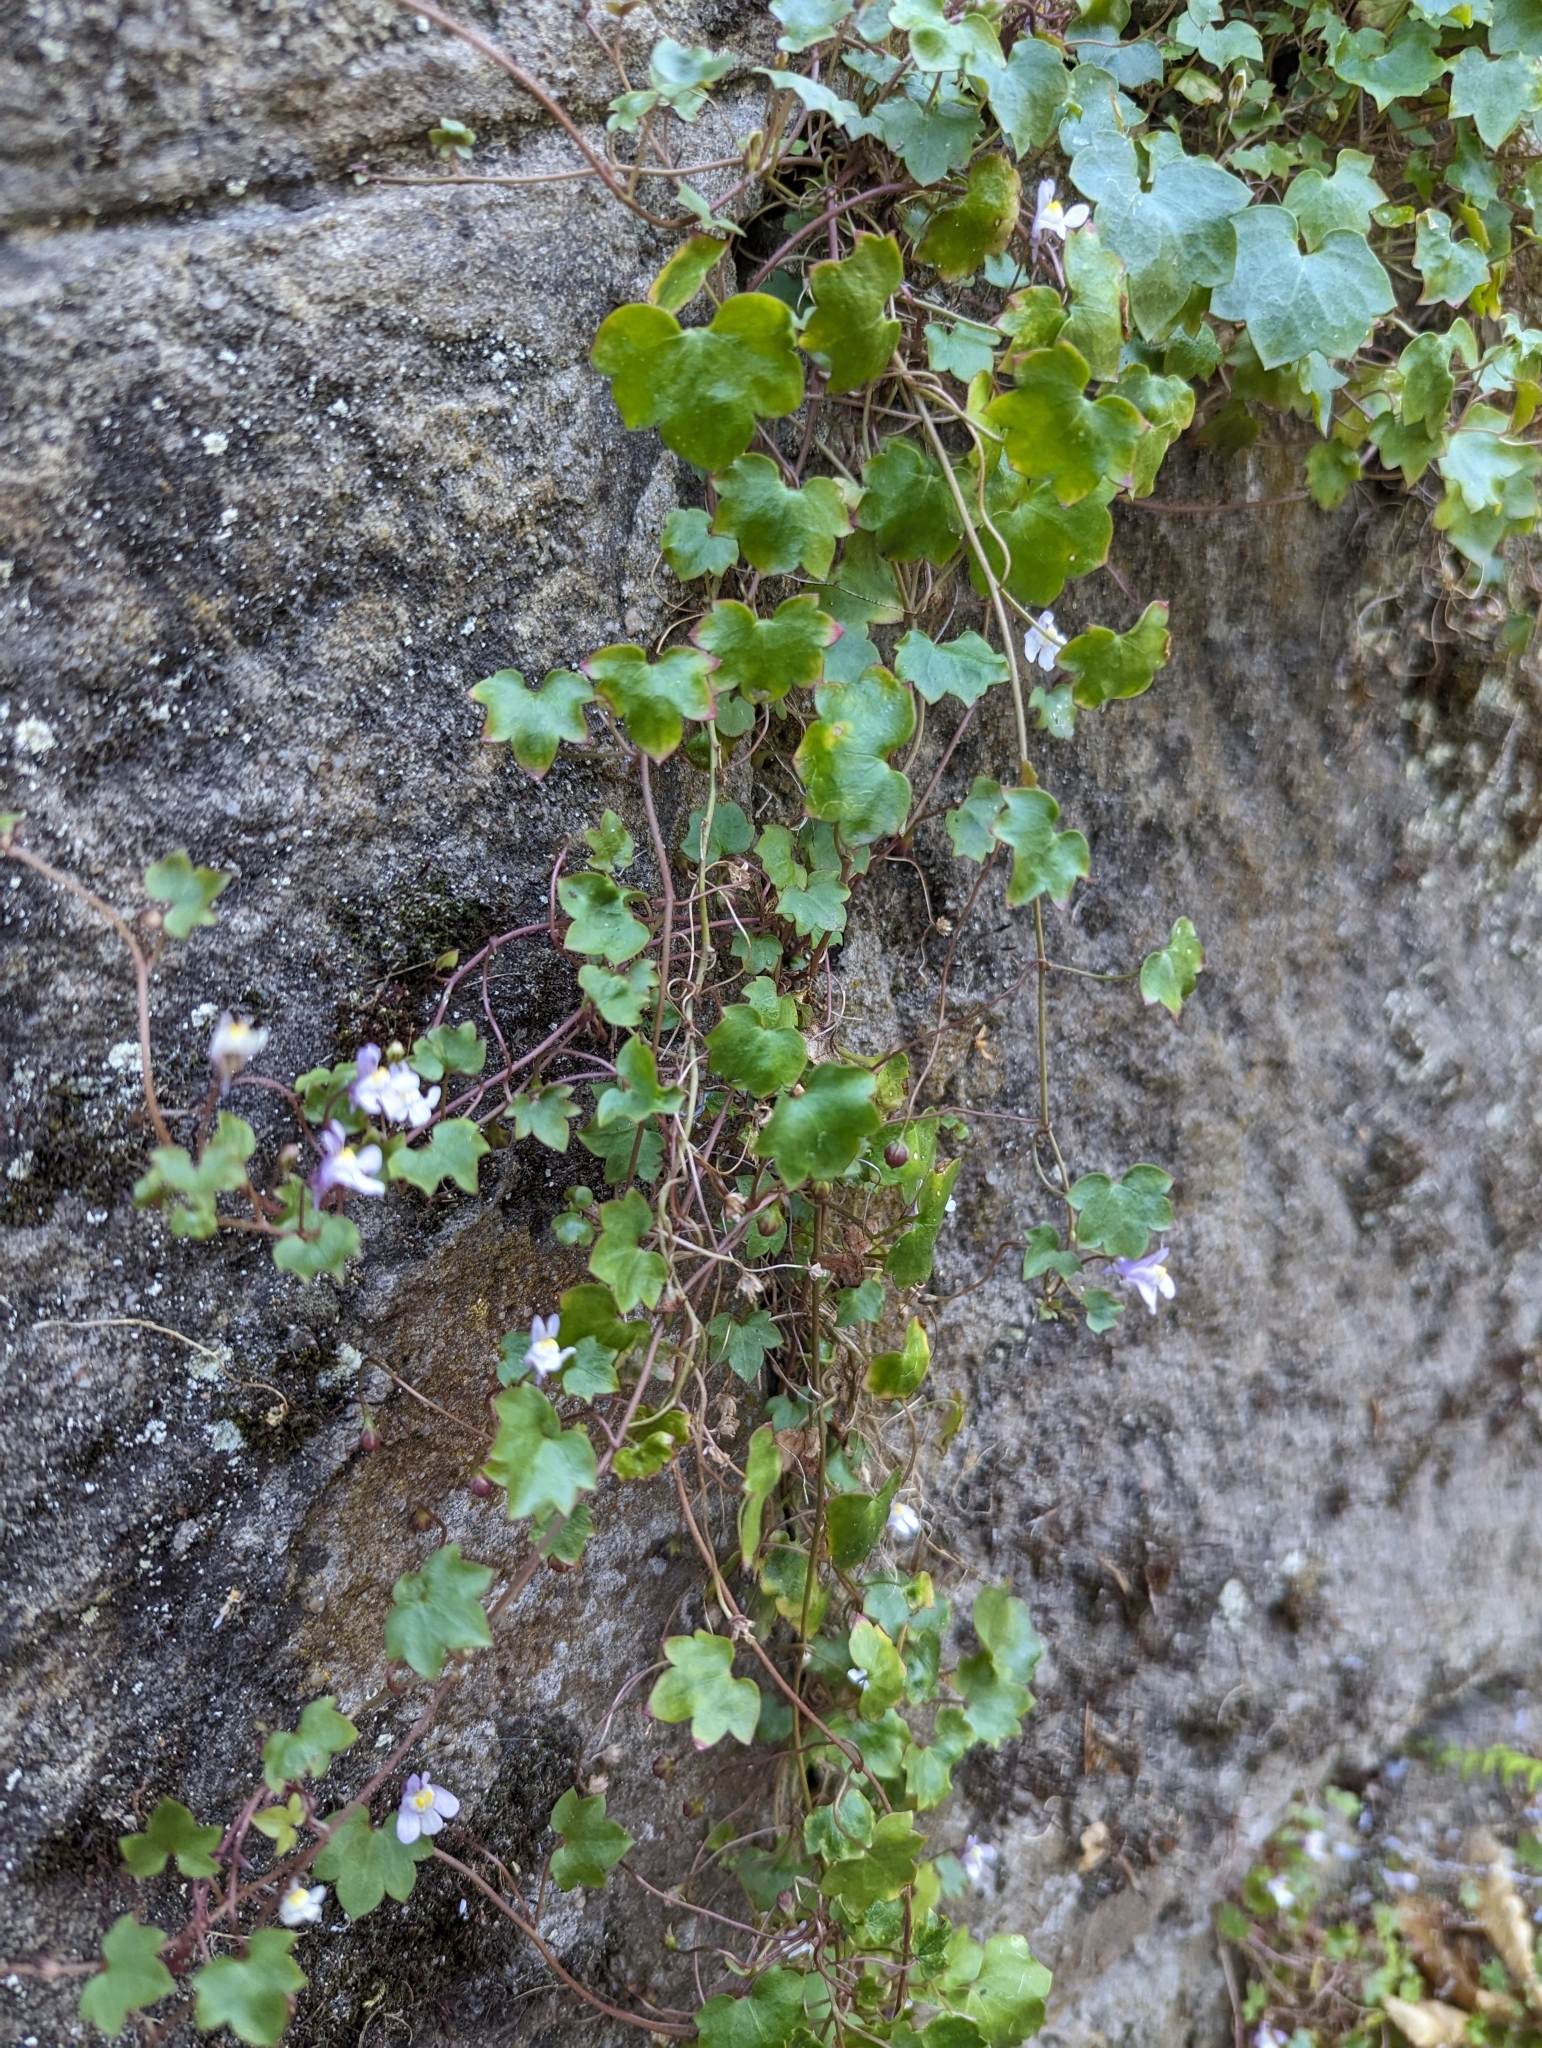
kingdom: Plantae
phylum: Tracheophyta
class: Magnoliopsida
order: Lamiales
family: Plantaginaceae
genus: Cymbalaria
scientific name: Cymbalaria muralis
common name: Ivy-leaved toadflax
